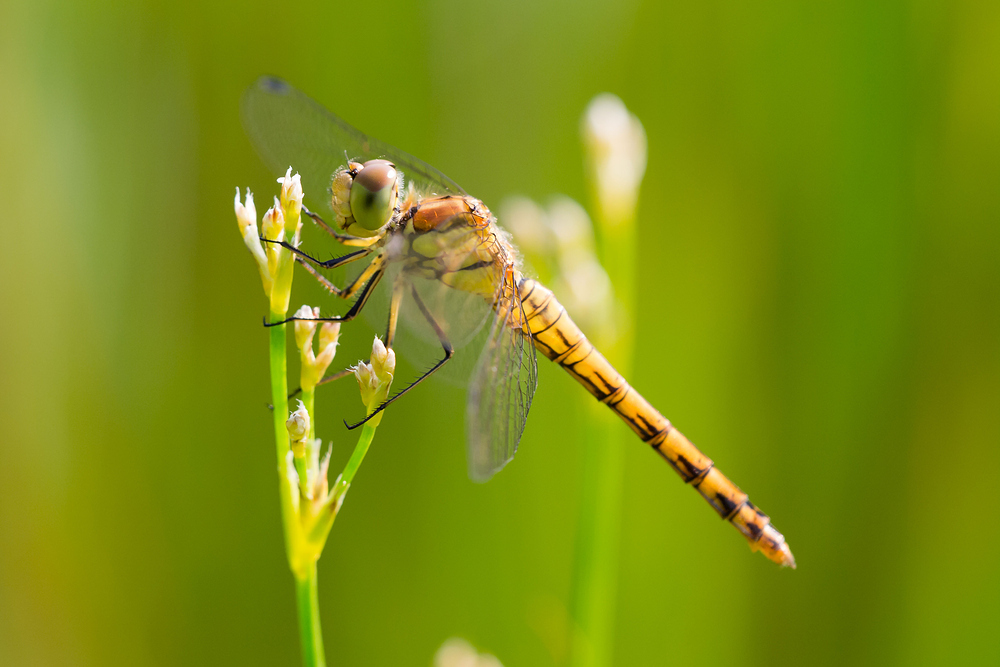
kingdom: Animalia
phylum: Arthropoda
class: Insecta
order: Odonata
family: Libellulidae
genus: Sympetrum
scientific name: Sympetrum striolatum
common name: Common darter
